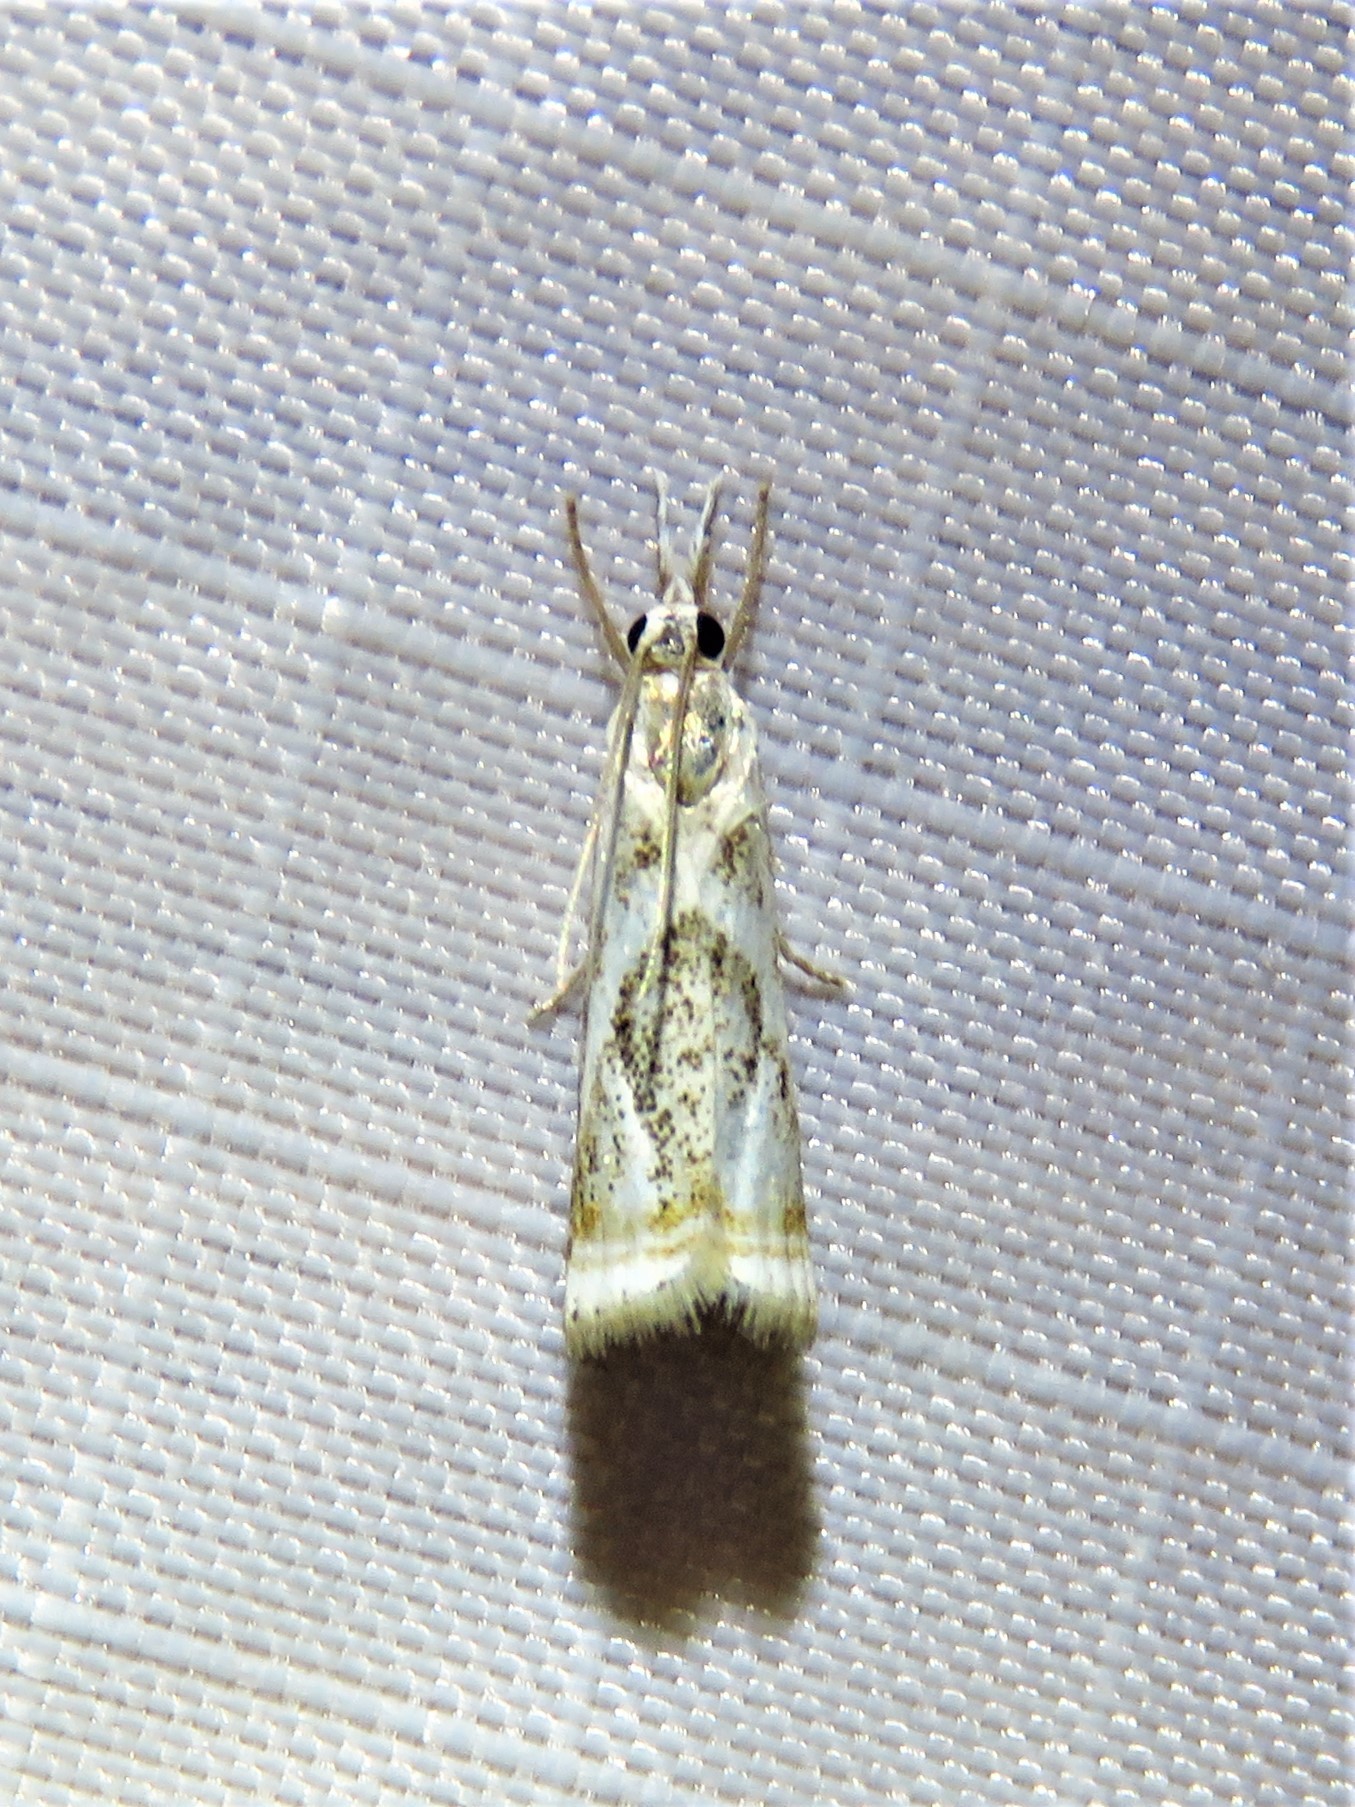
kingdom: Animalia
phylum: Arthropoda
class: Insecta
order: Lepidoptera
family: Crambidae
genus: Microcrambus
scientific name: Microcrambus elegans
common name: Elegant grass-veneer
